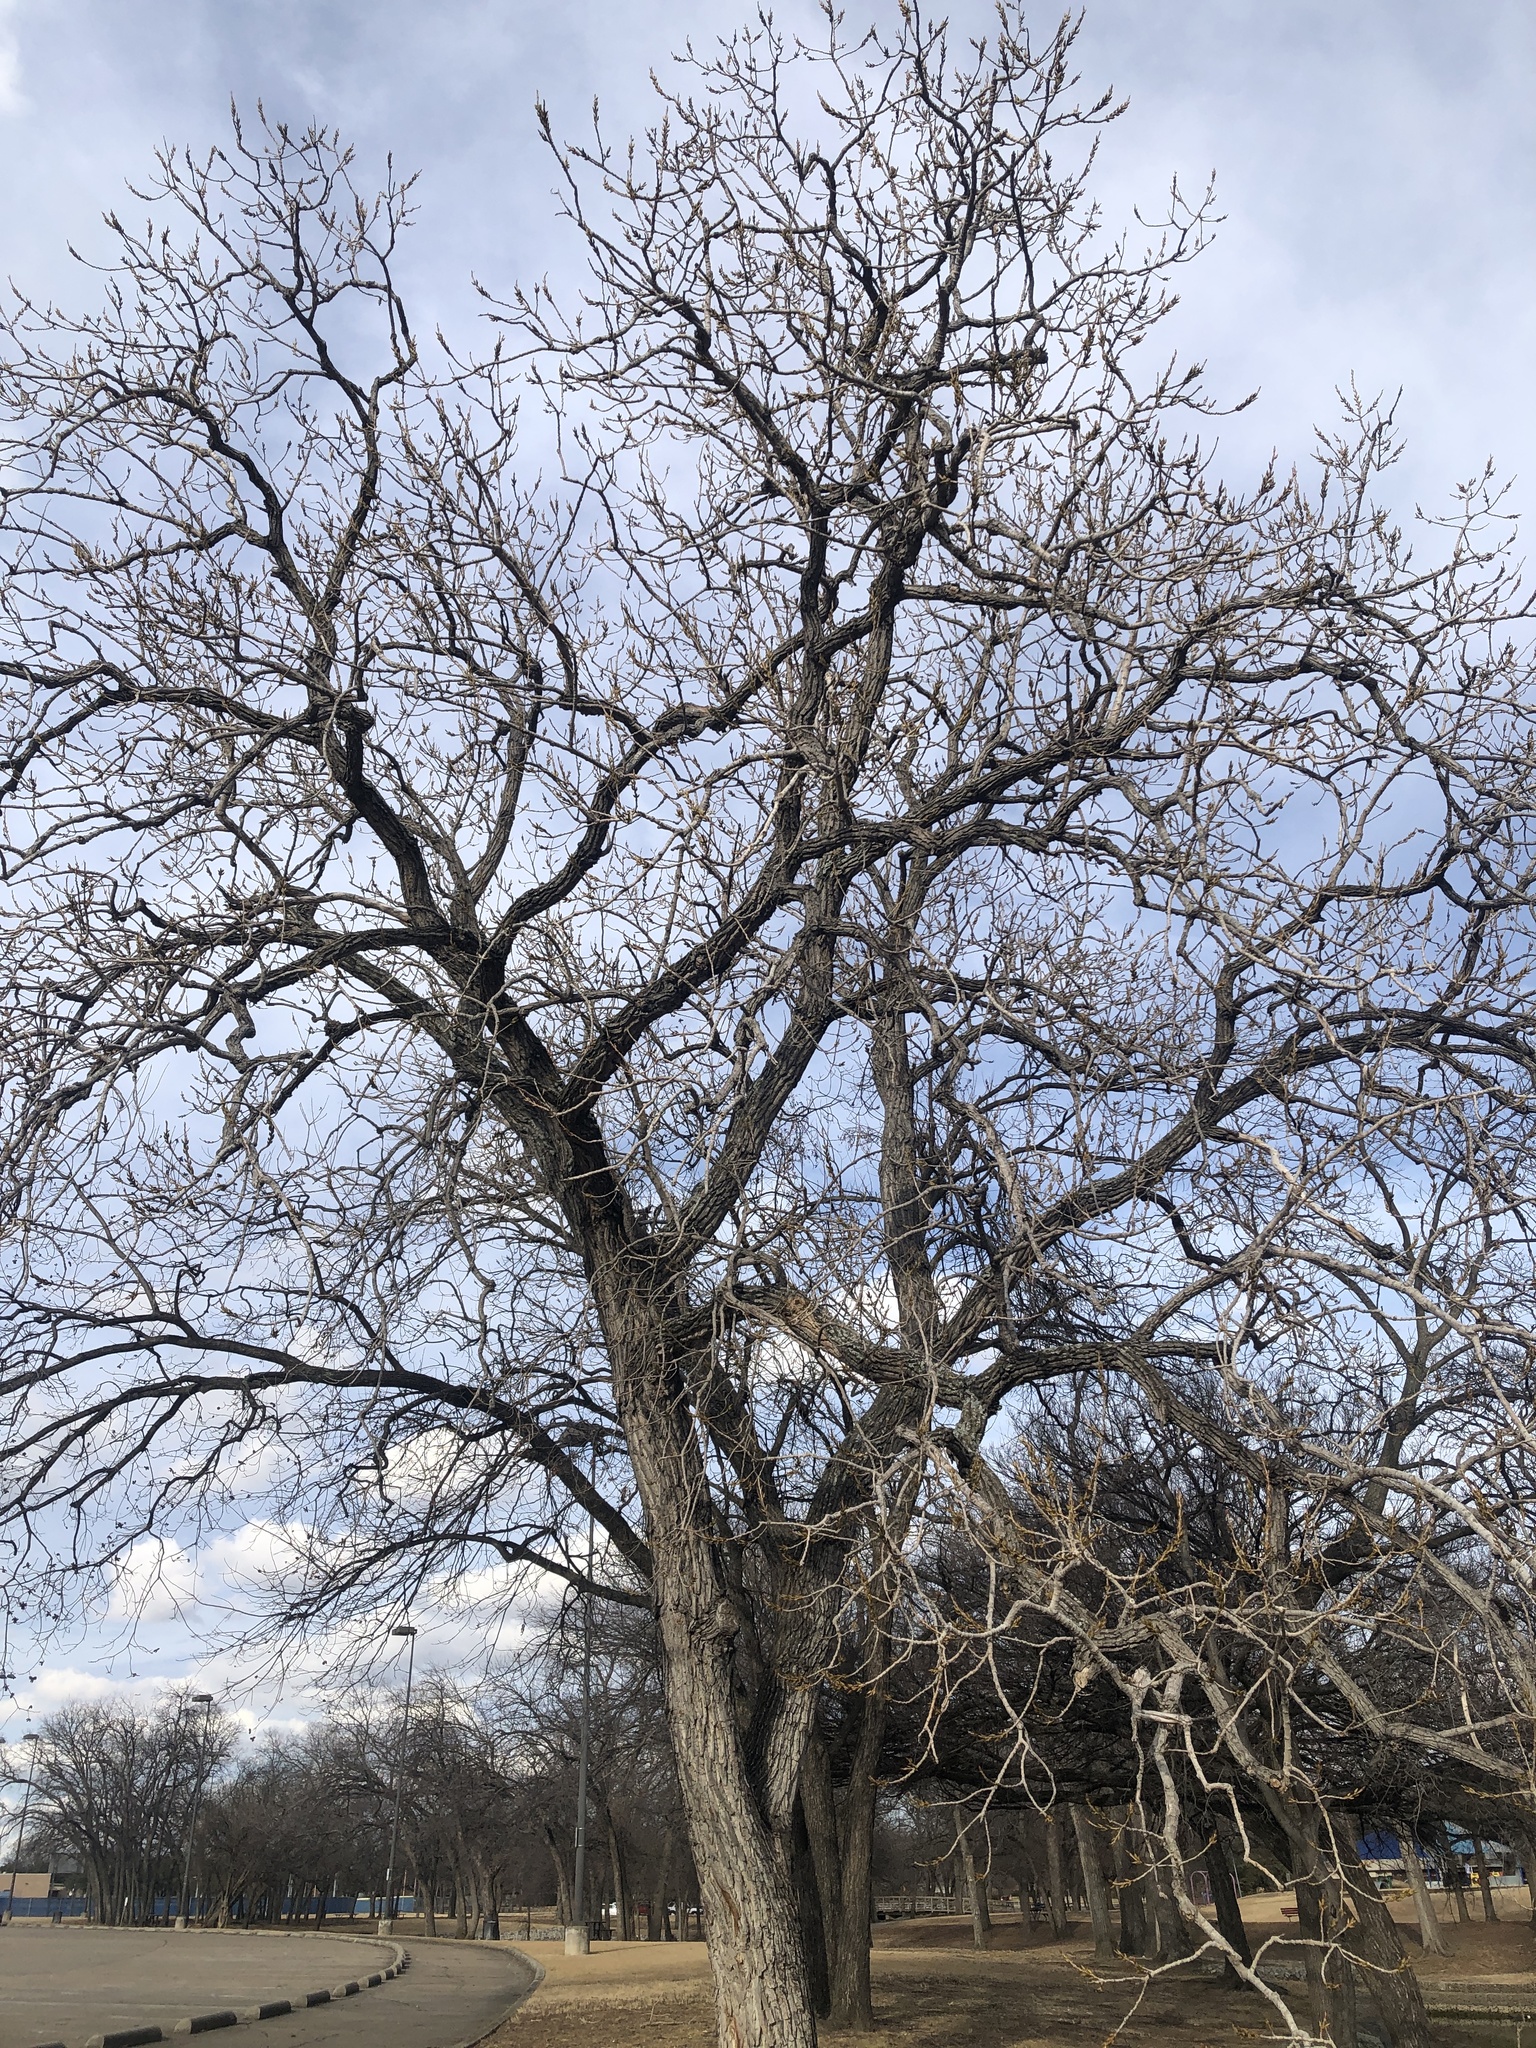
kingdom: Plantae
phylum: Tracheophyta
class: Magnoliopsida
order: Malpighiales
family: Salicaceae
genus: Populus
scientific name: Populus deltoides
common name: Eastern cottonwood
